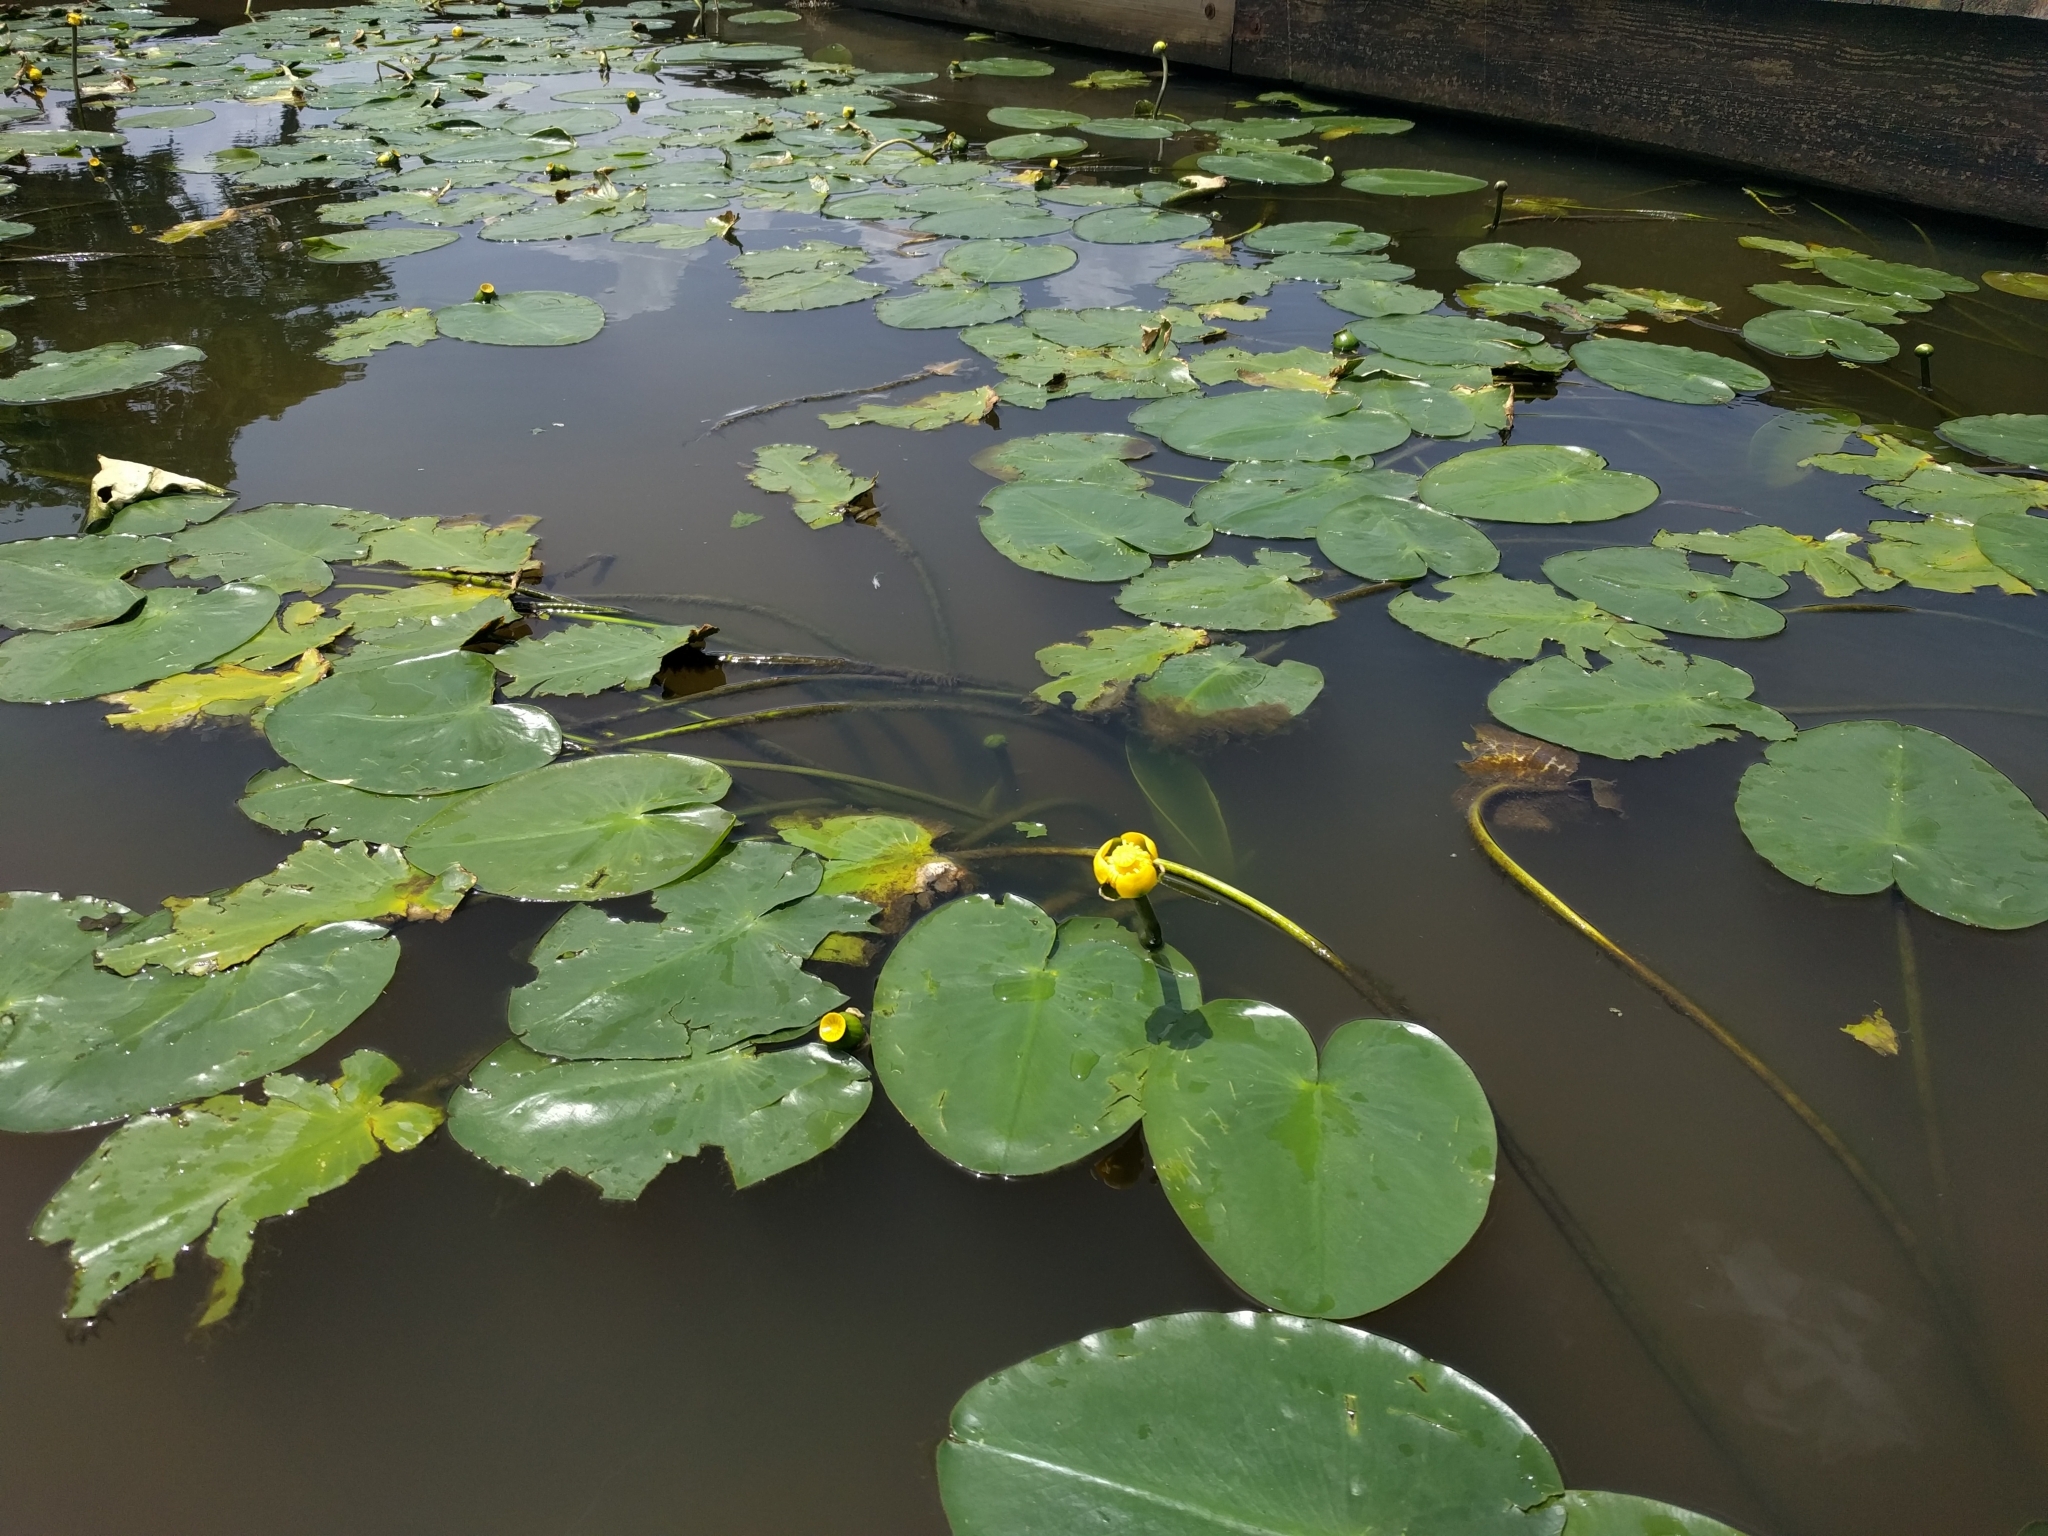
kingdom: Plantae
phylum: Tracheophyta
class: Magnoliopsida
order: Nymphaeales
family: Nymphaeaceae
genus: Nuphar
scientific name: Nuphar advena
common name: Spatter-dock
